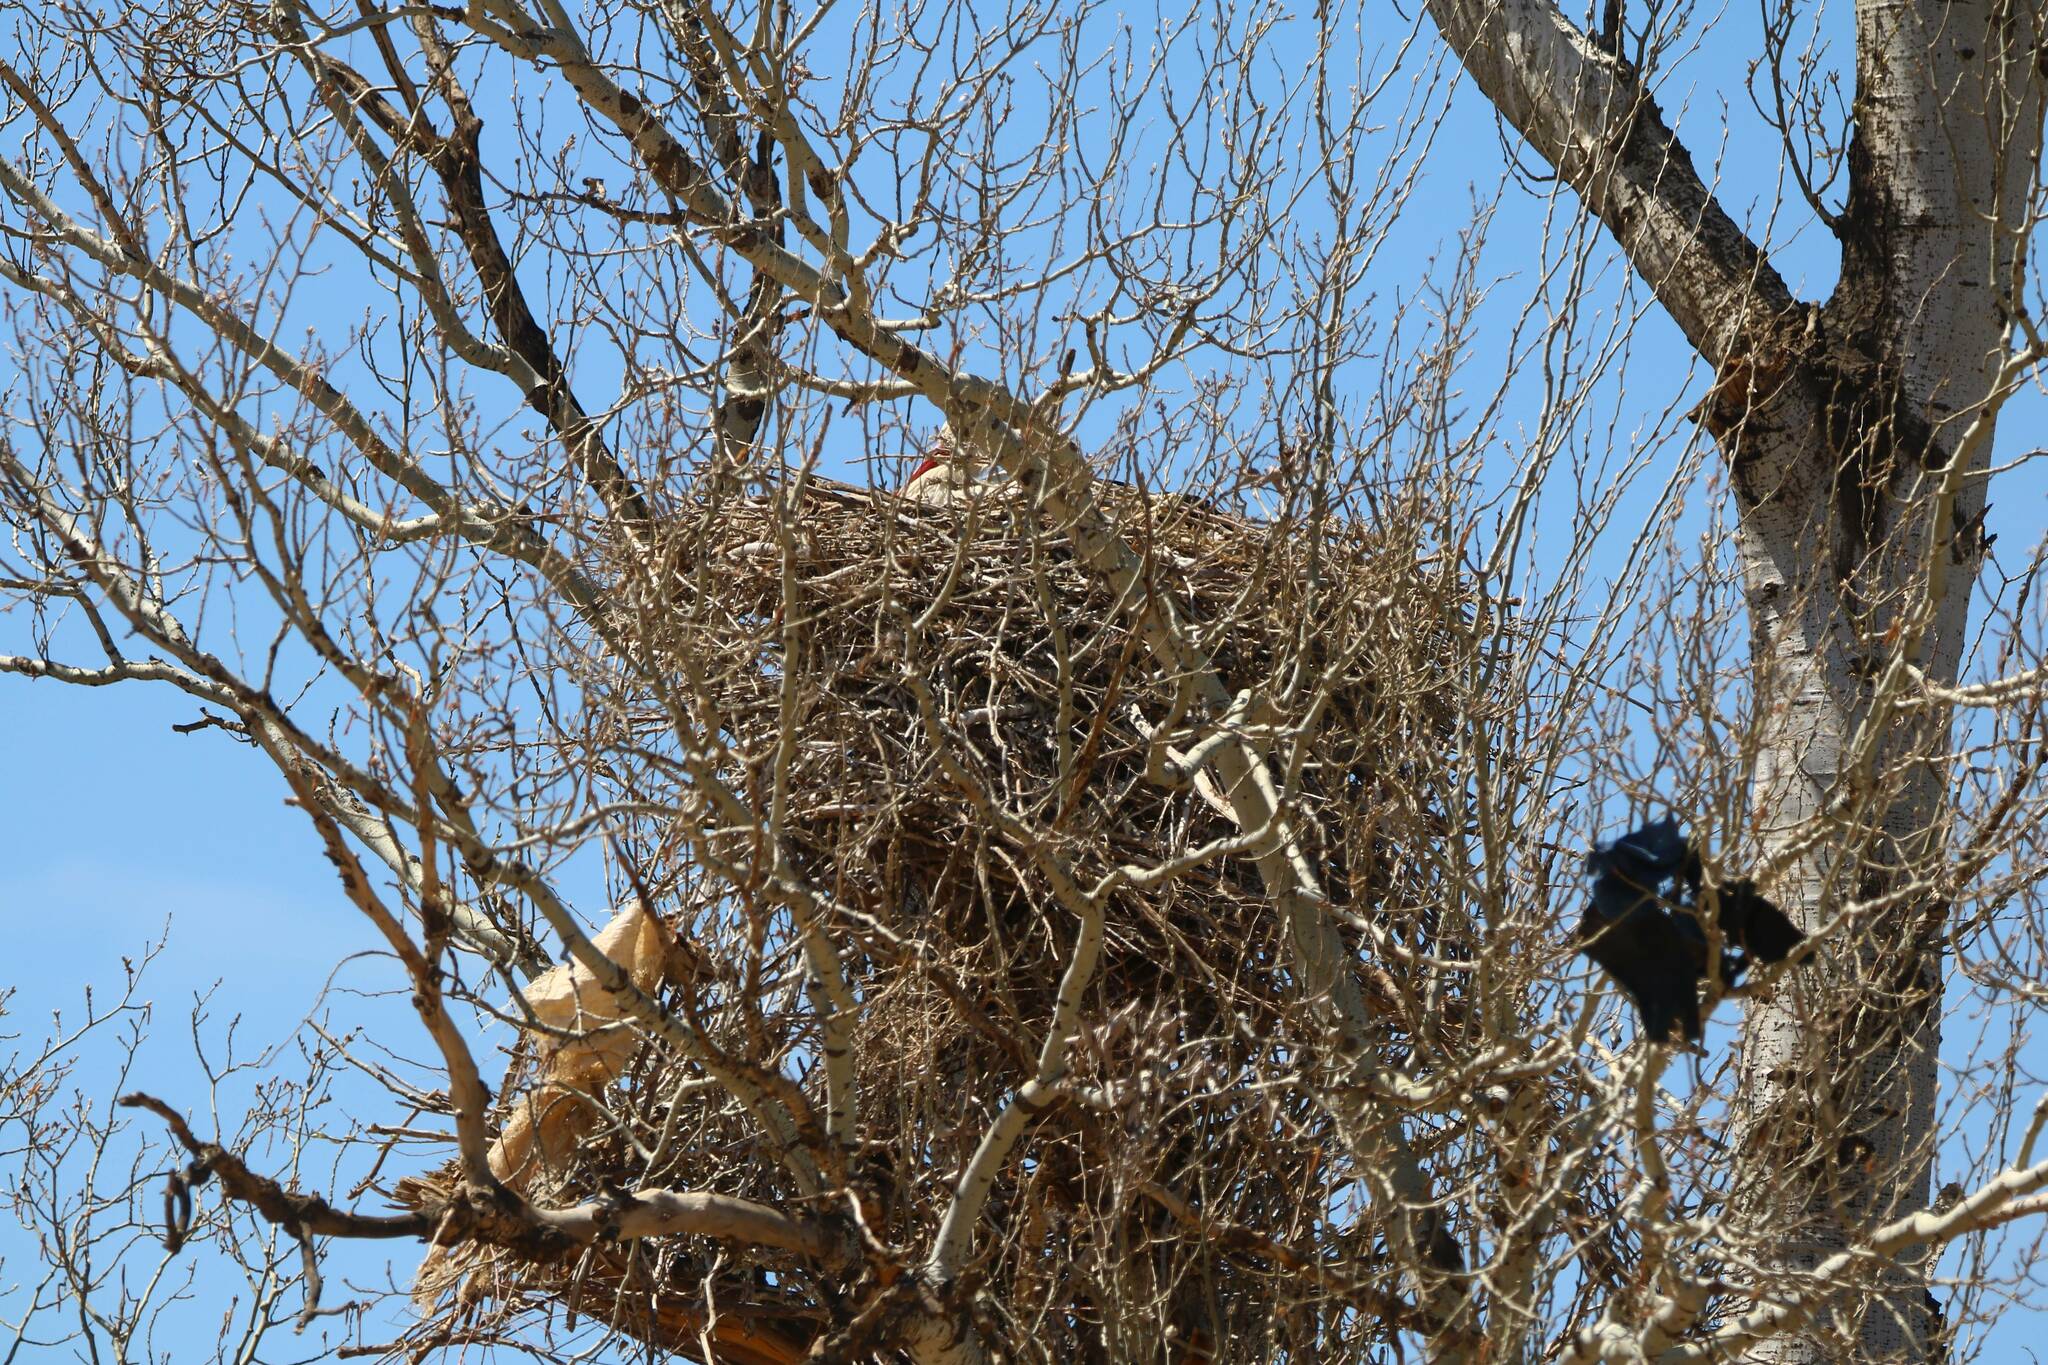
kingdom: Animalia
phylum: Chordata
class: Aves
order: Ciconiiformes
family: Ciconiidae
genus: Ciconia
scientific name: Ciconia ciconia
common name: White stork
